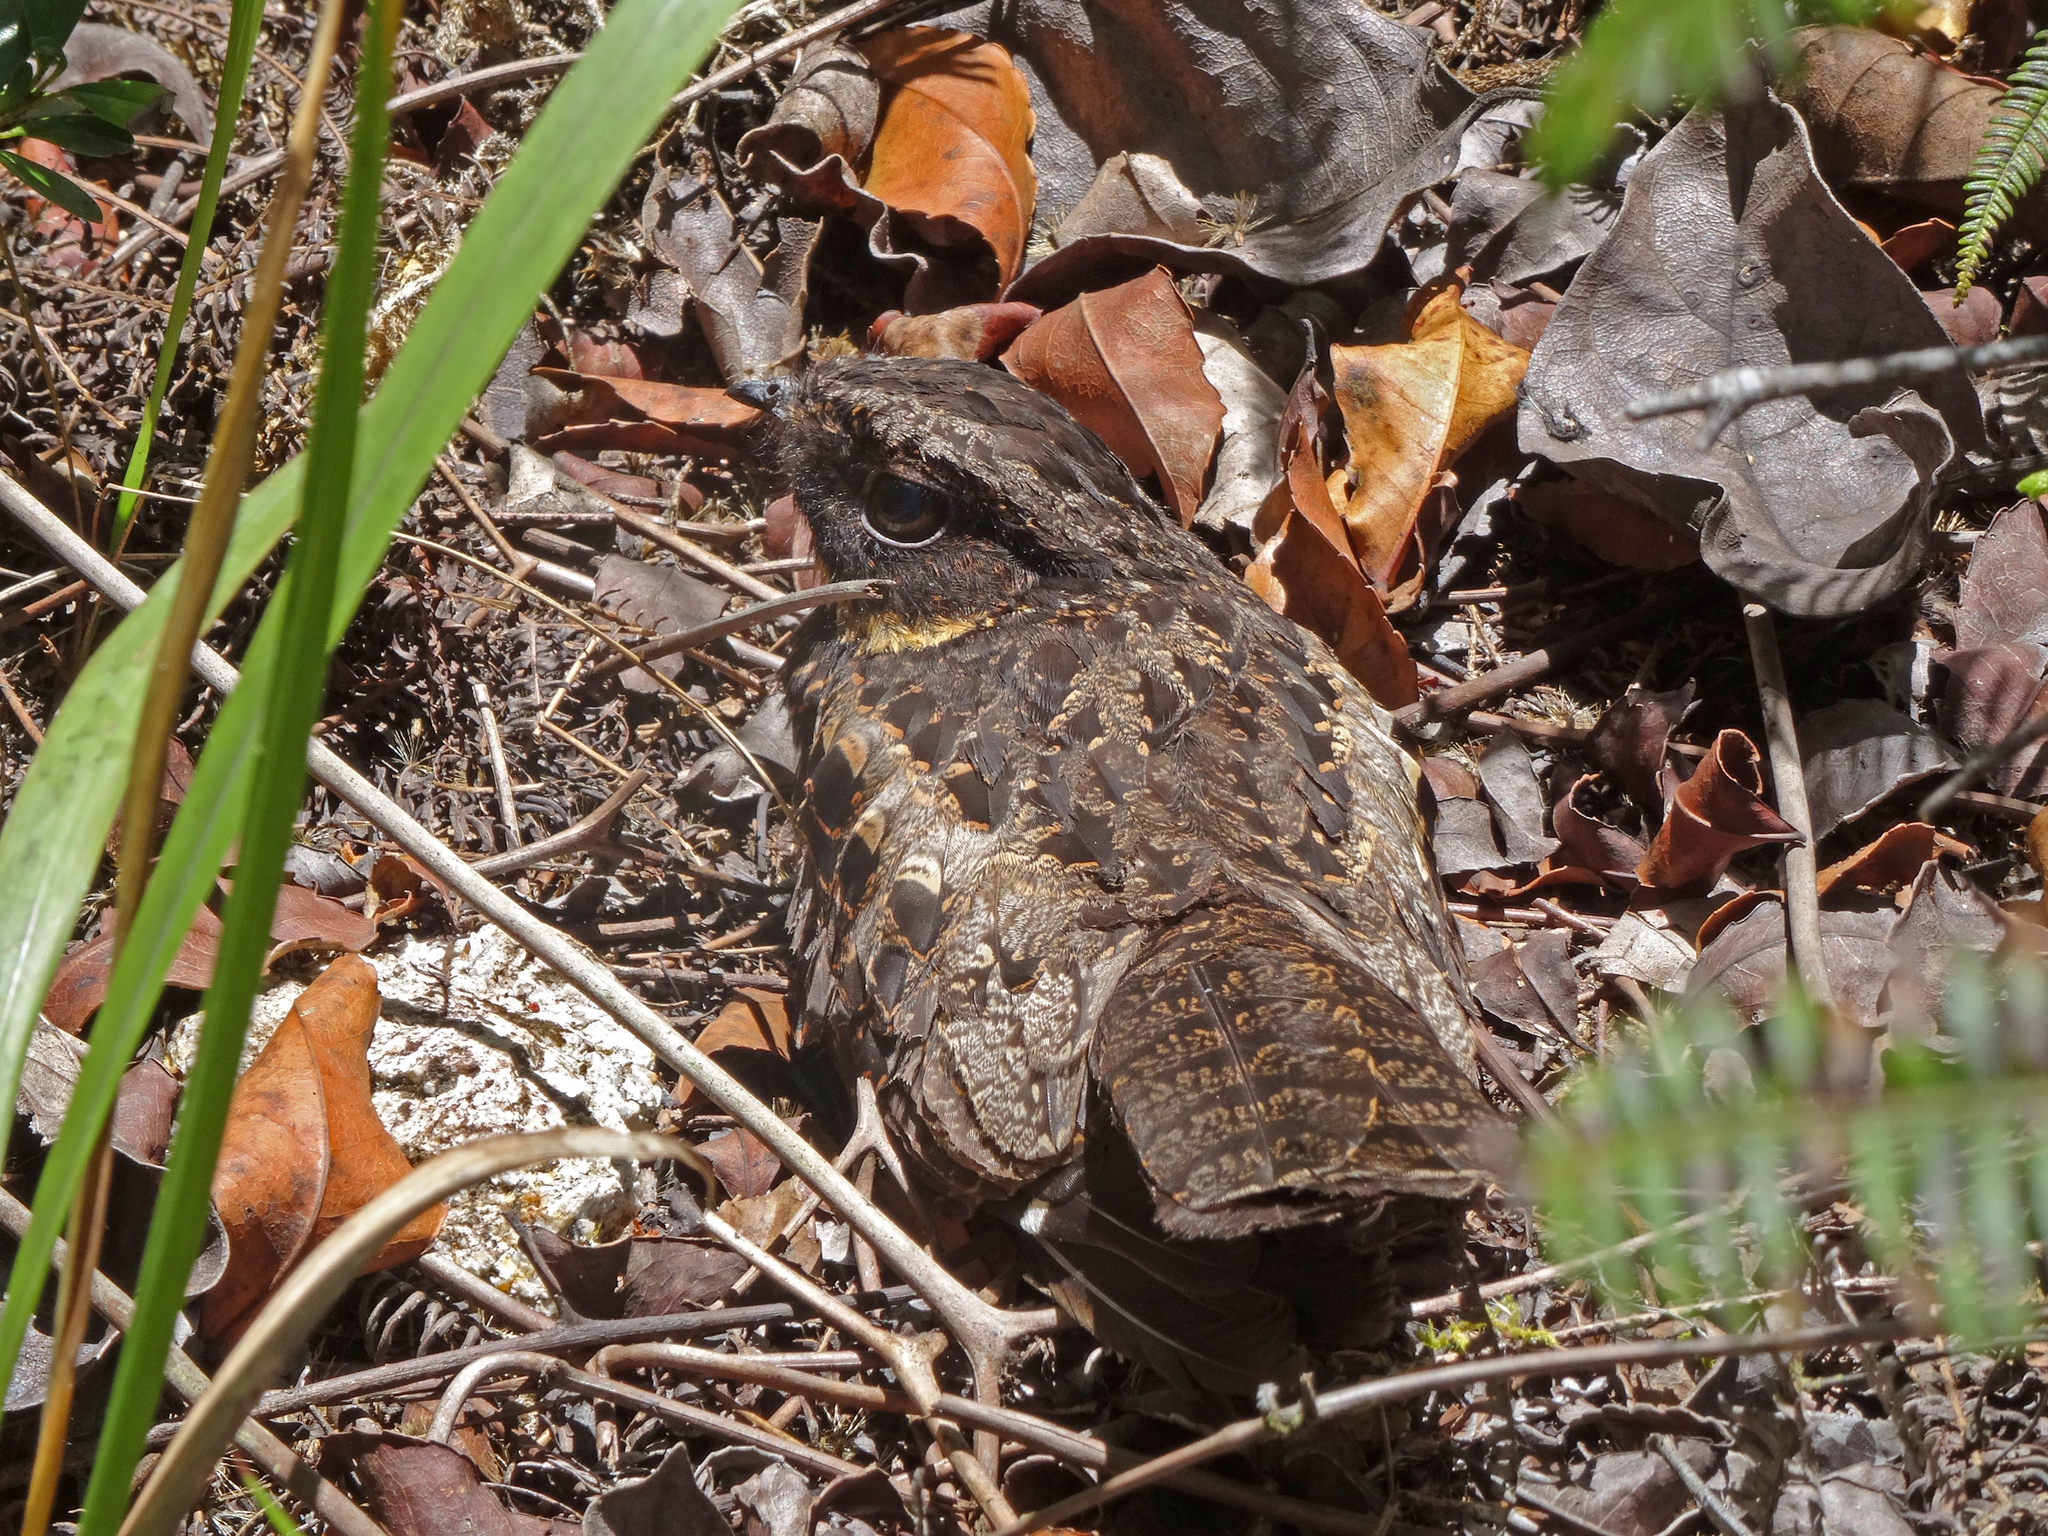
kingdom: Animalia
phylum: Chordata
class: Aves
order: Caprimulgiformes
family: Caprimulgidae
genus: Eurostopodus
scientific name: Eurostopodus diabolicus
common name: Satanic nightjar
